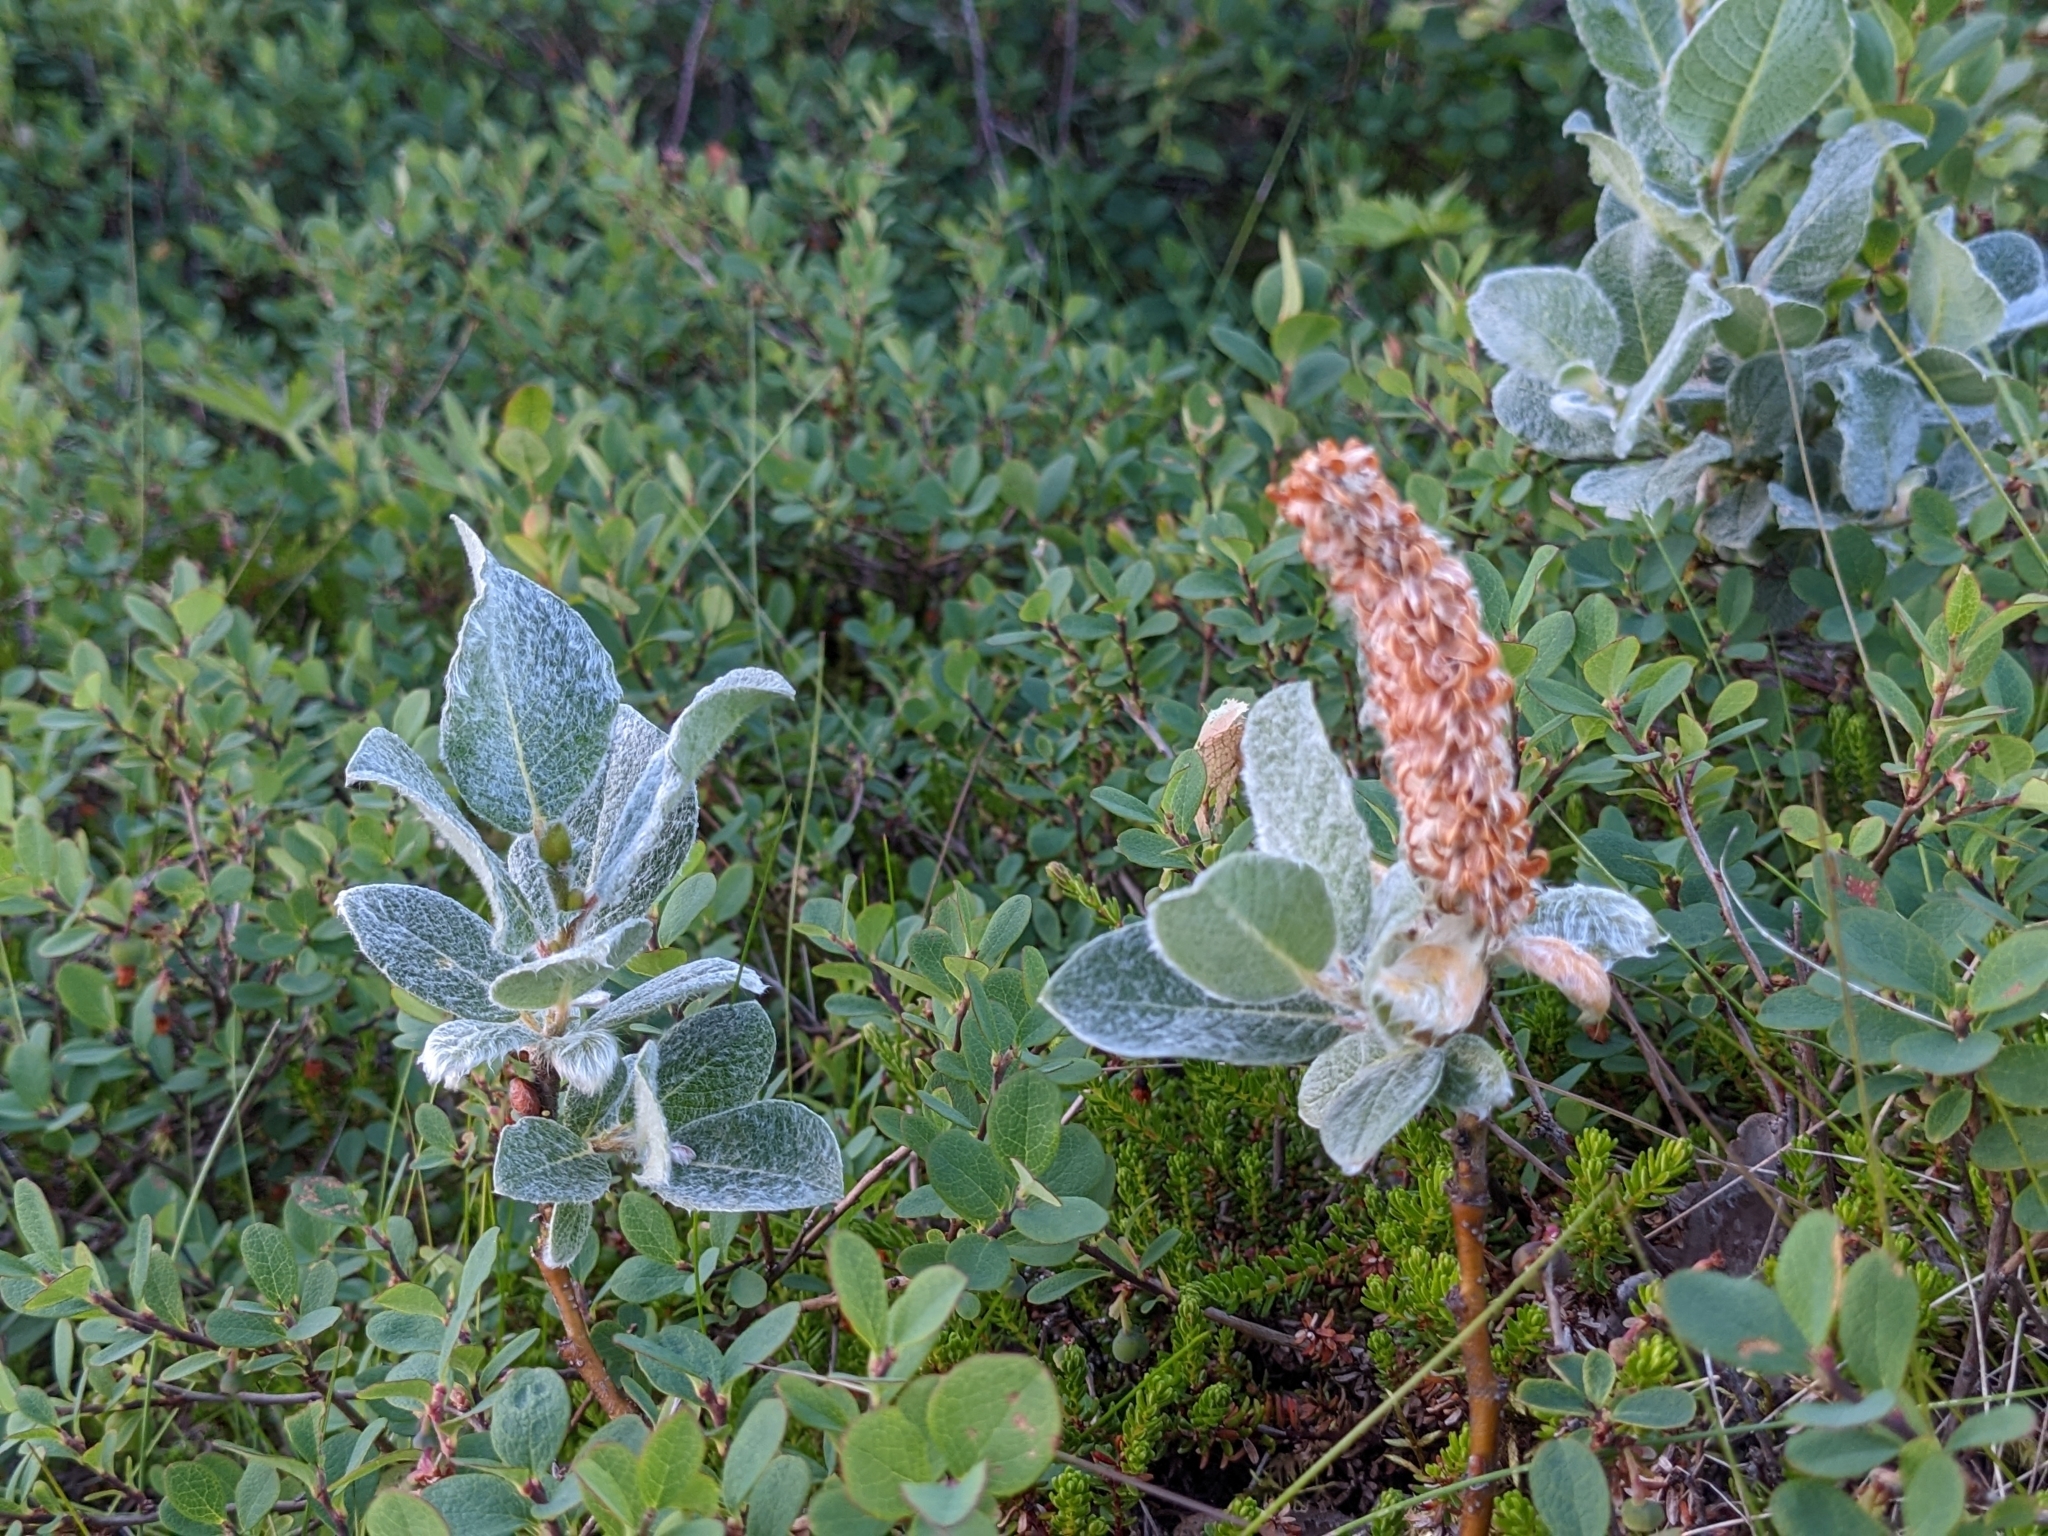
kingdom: Plantae
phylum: Tracheophyta
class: Magnoliopsida
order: Malpighiales
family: Salicaceae
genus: Salix
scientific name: Salix lanata
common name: Woolly willow
